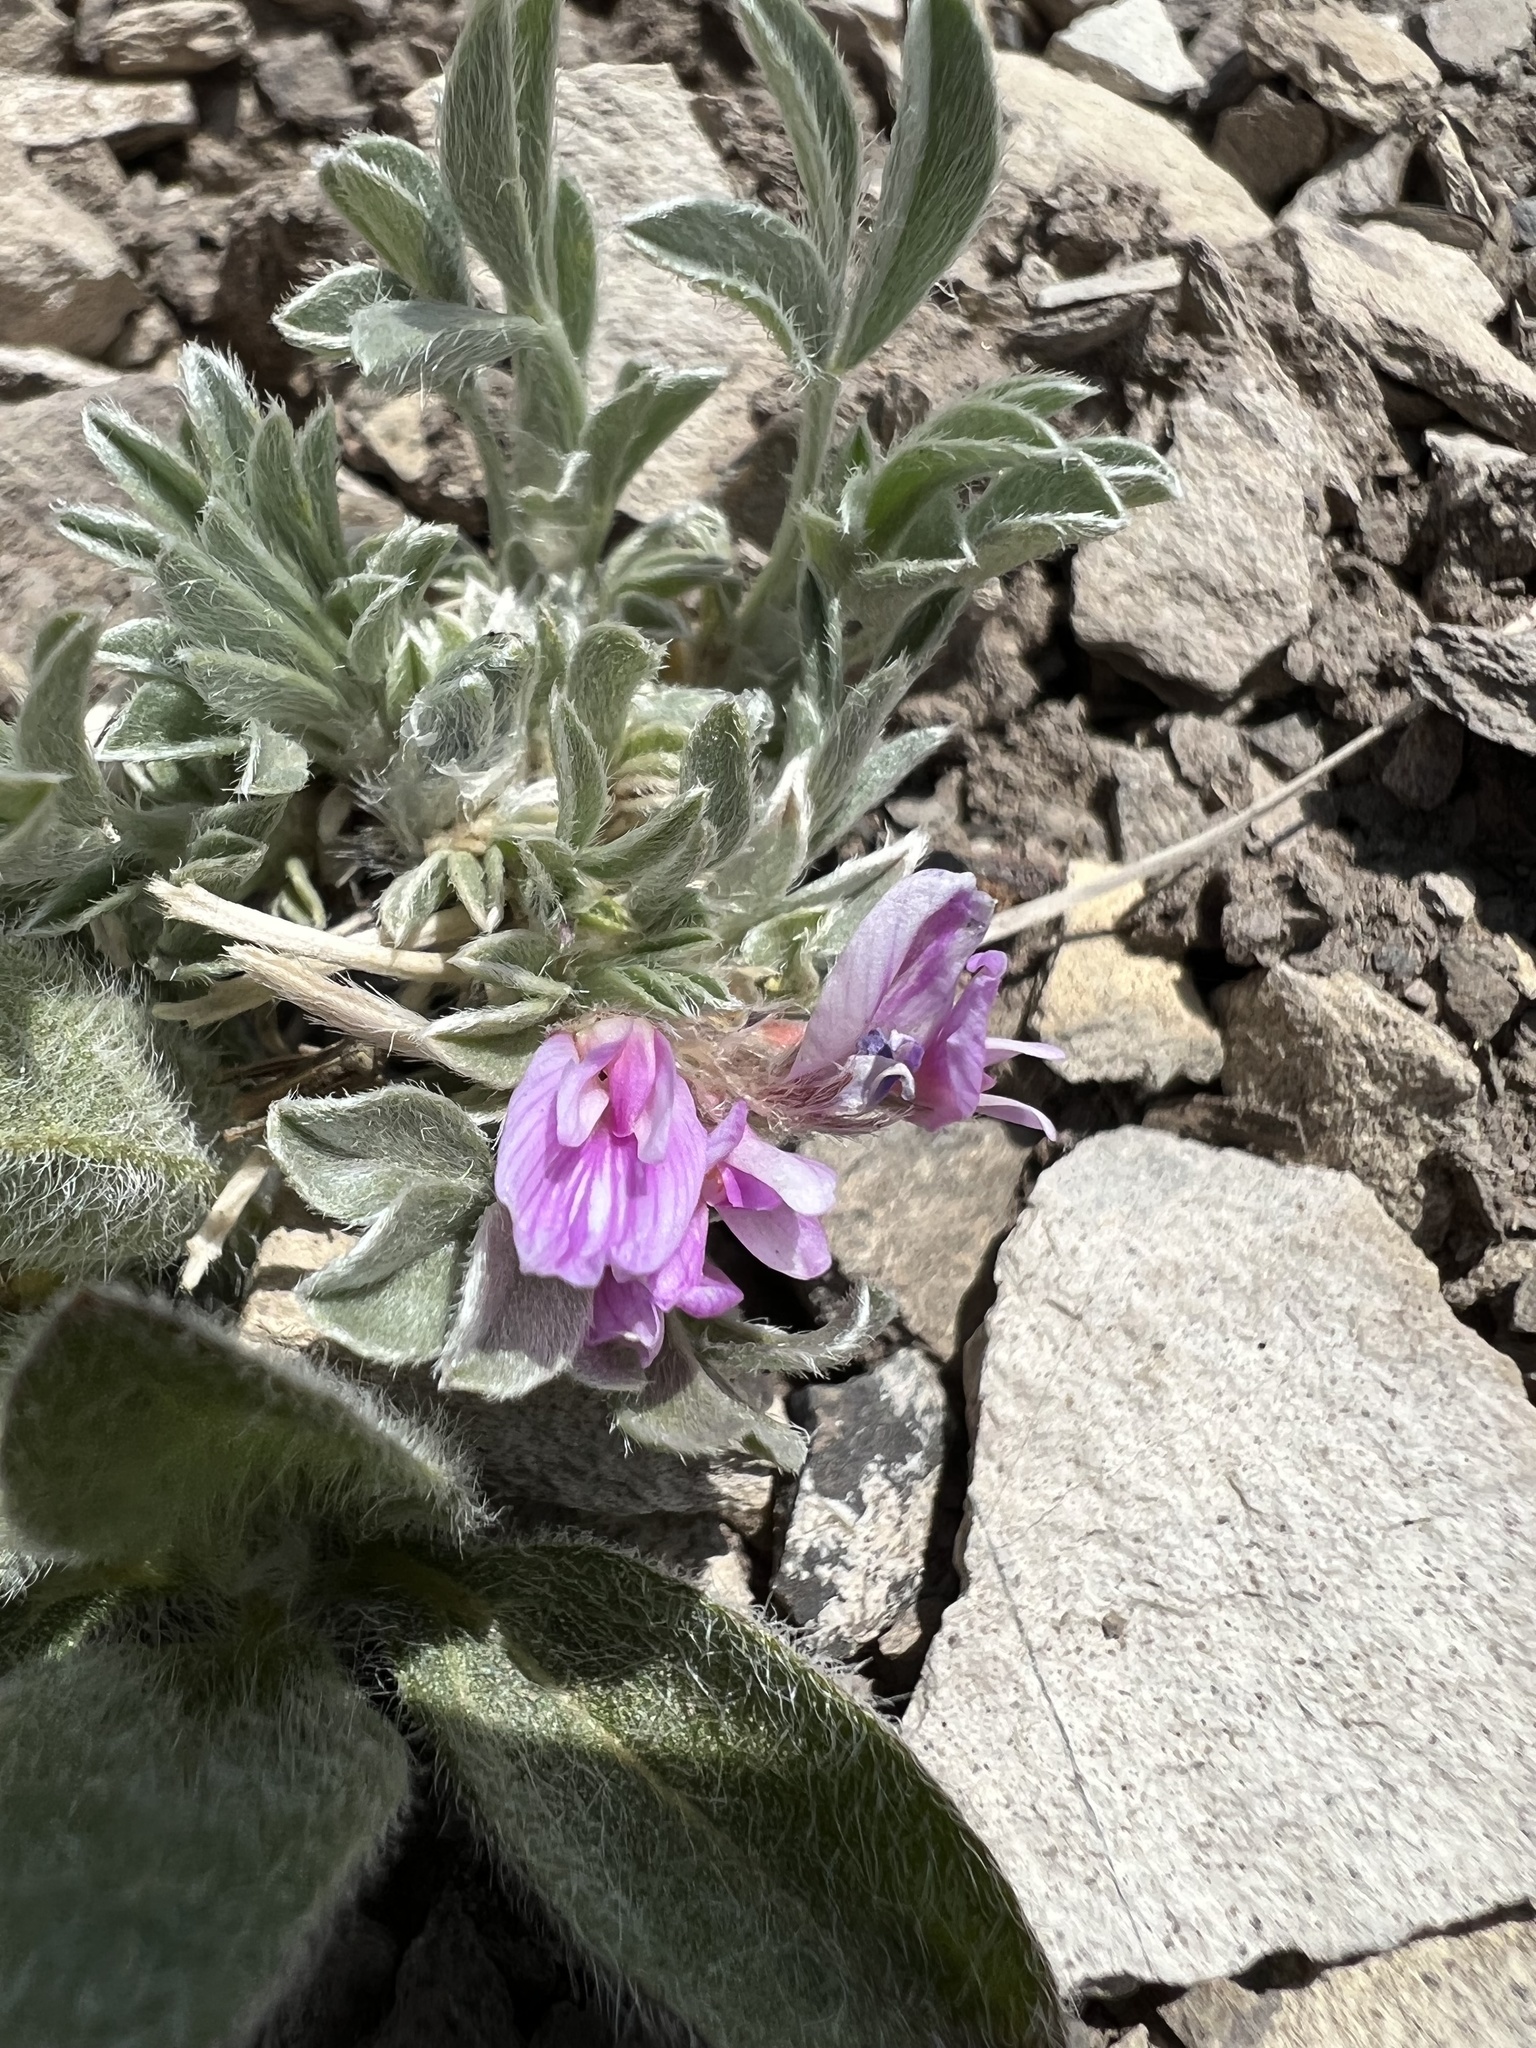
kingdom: Plantae
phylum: Tracheophyta
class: Magnoliopsida
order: Fabales
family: Fabaceae
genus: Astragalus
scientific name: Astragalus tridactylicus
